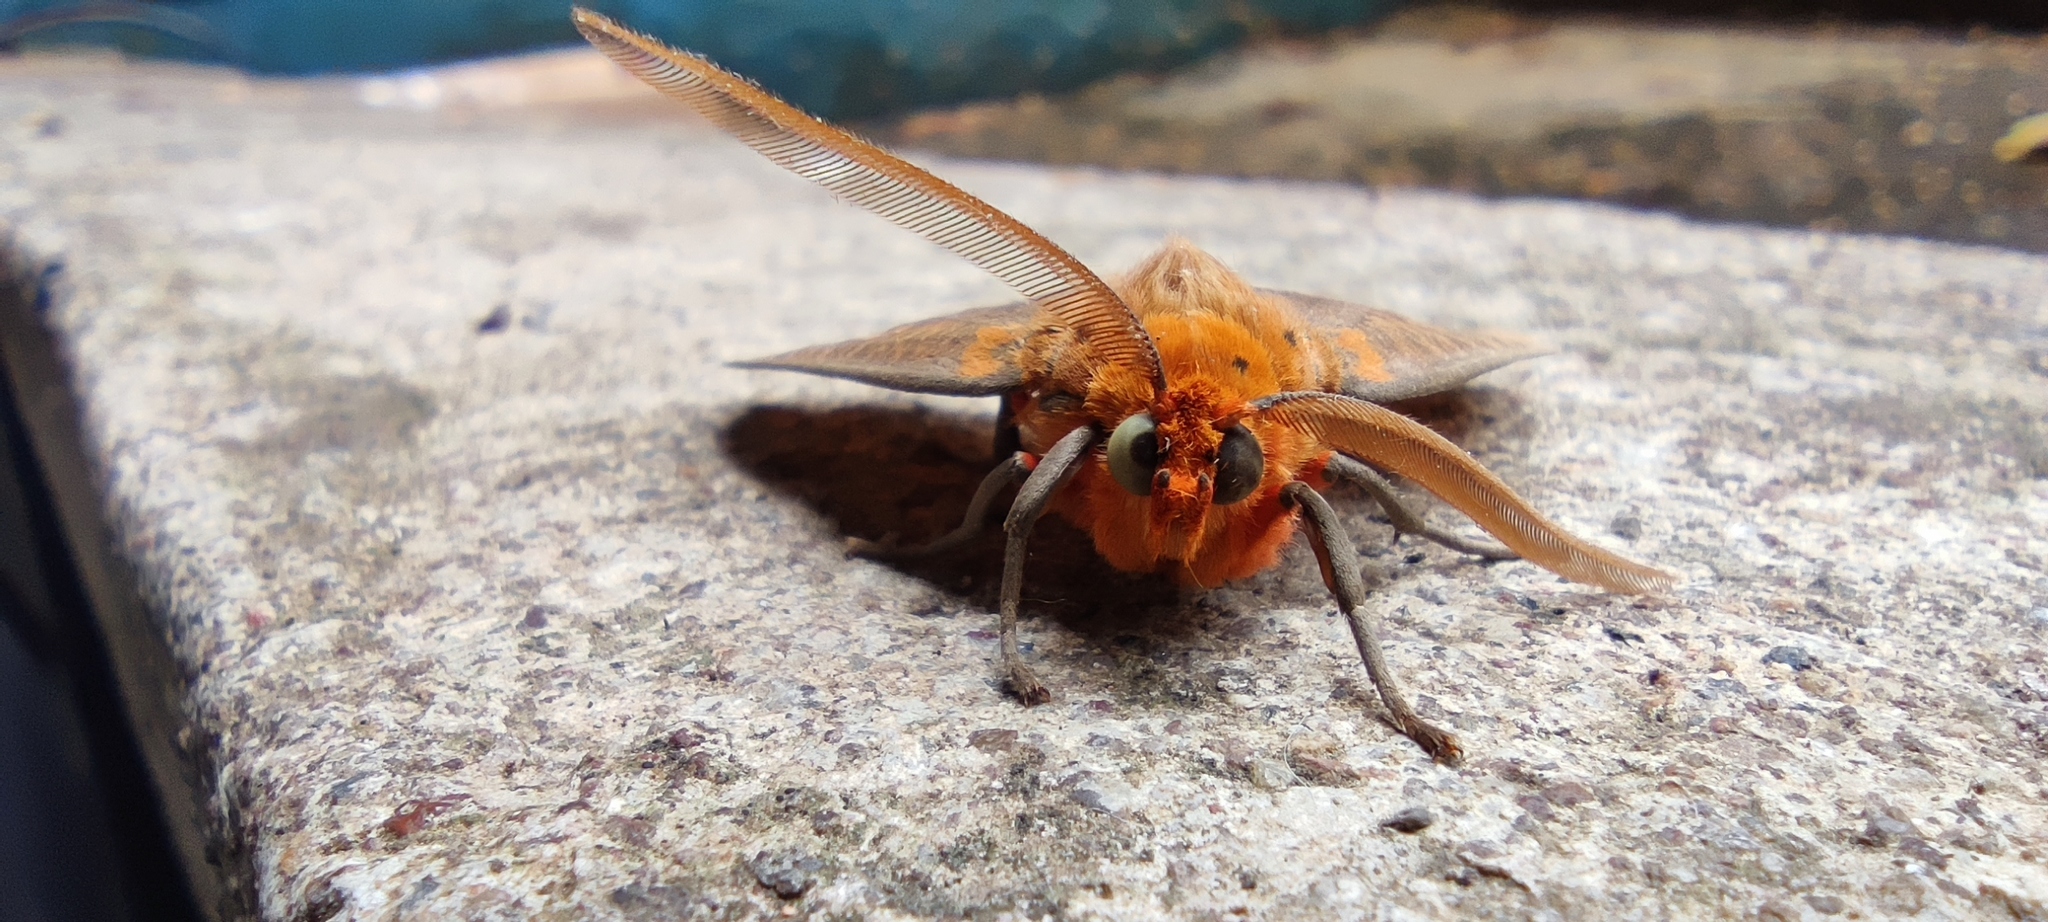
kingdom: Animalia
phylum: Arthropoda
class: Insecta
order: Lepidoptera
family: Erebidae
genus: Ammalo
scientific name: Ammalo helops
